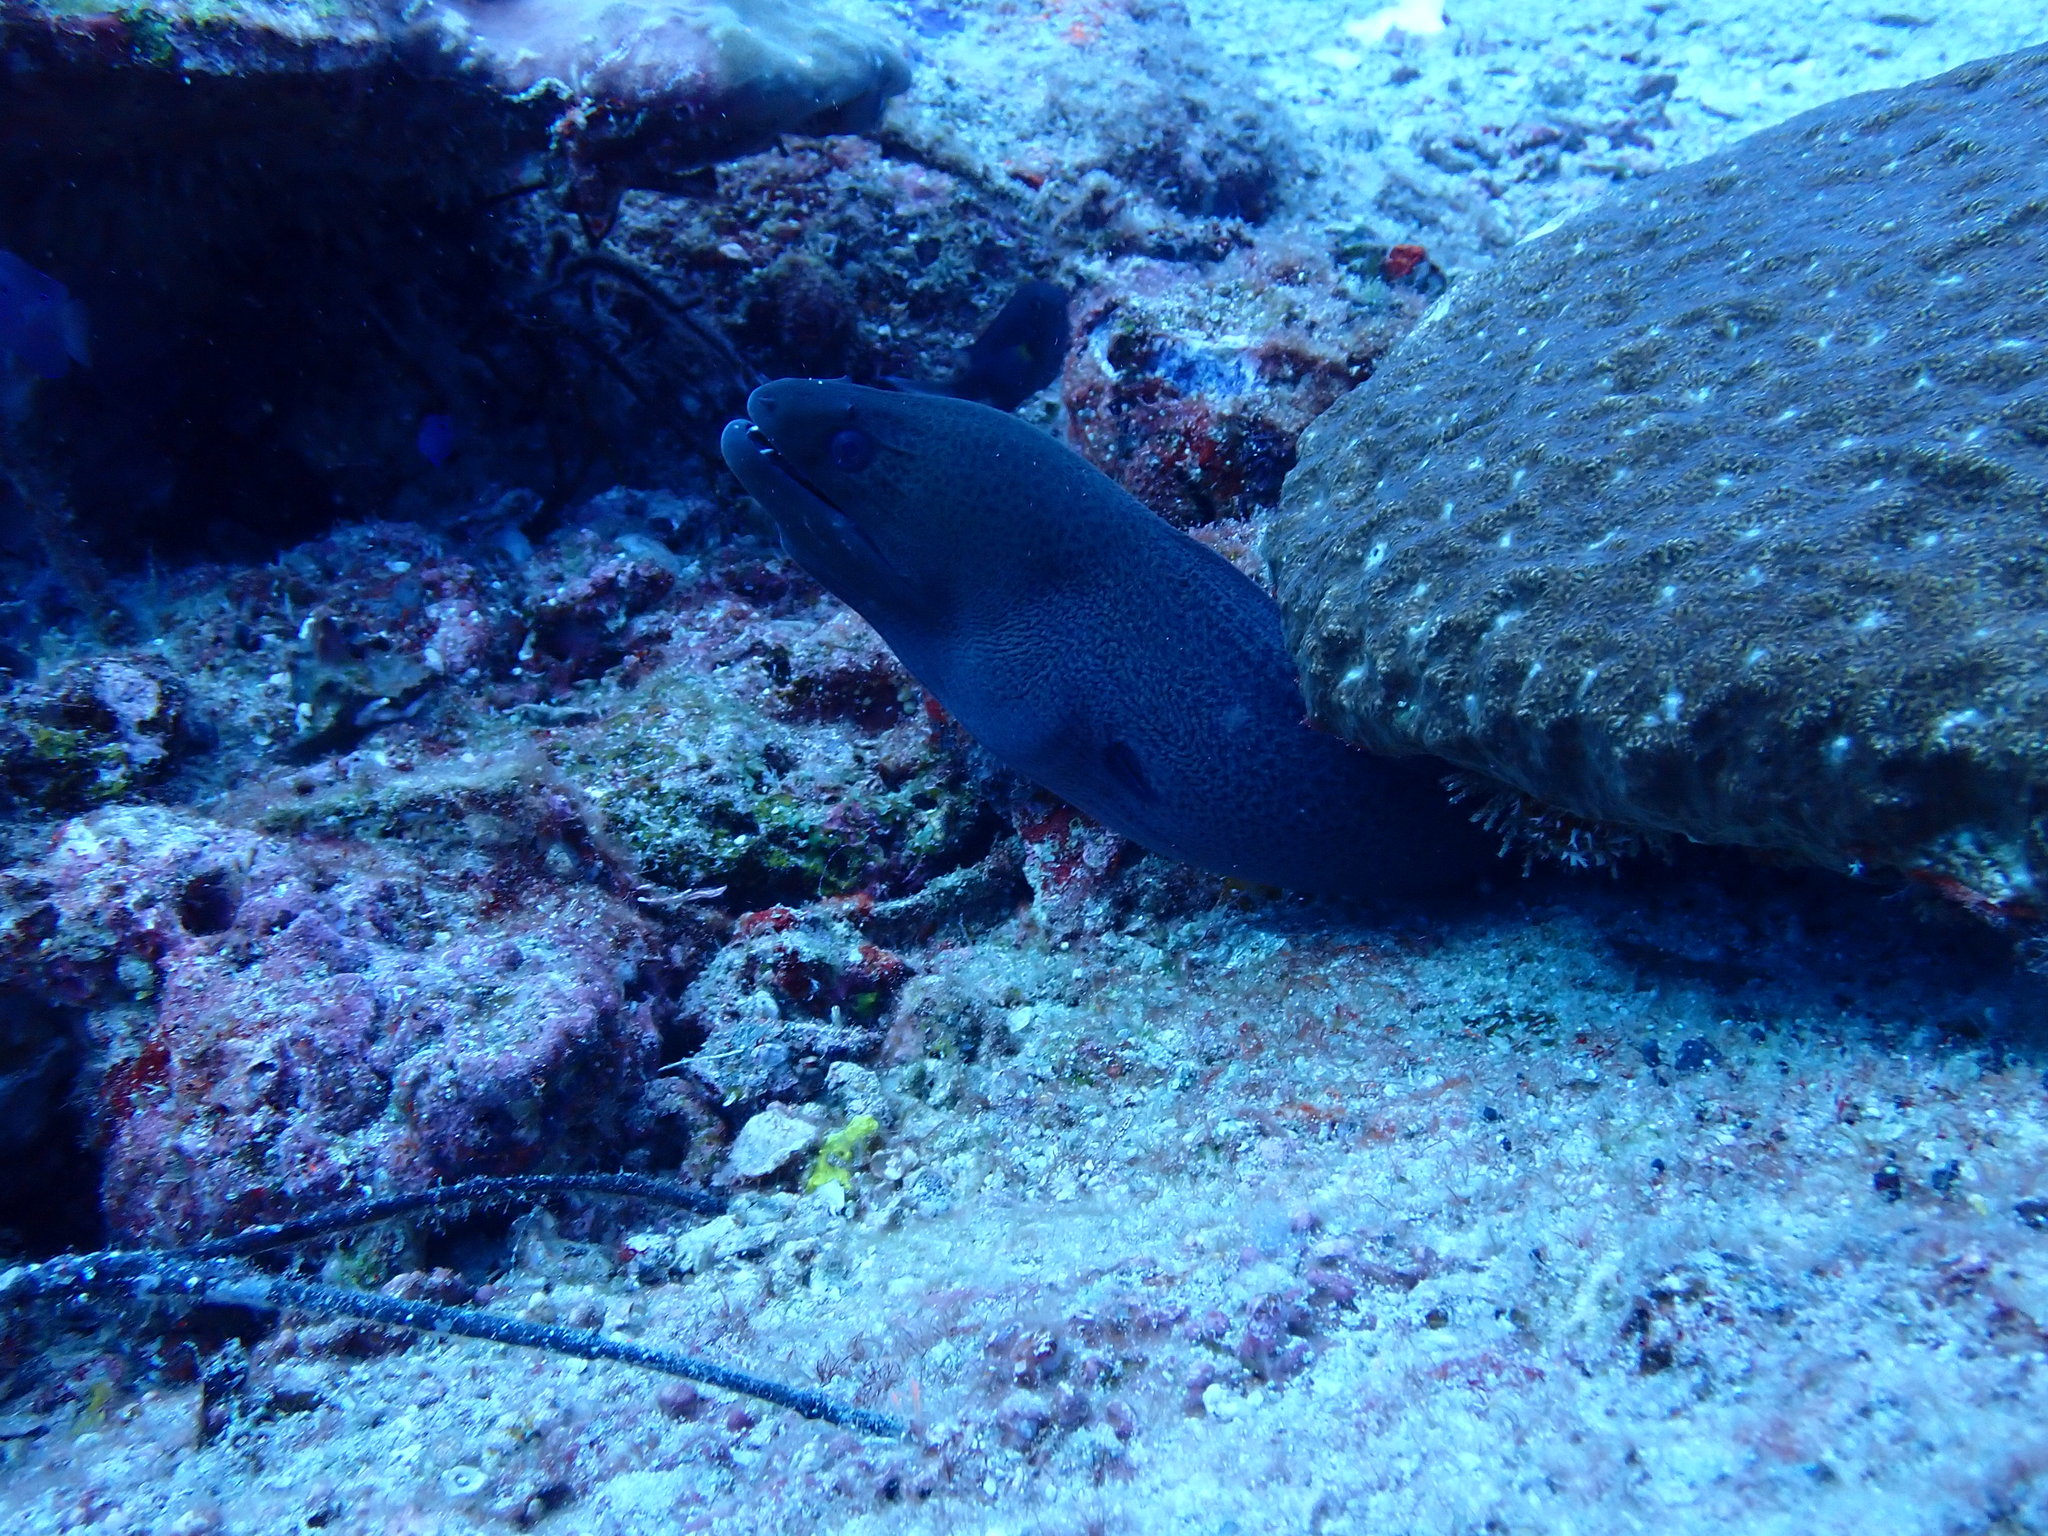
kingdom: Animalia
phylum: Chordata
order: Anguilliformes
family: Muraenidae
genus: Gymnothorax
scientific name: Gymnothorax javanicus
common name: Giant moray
